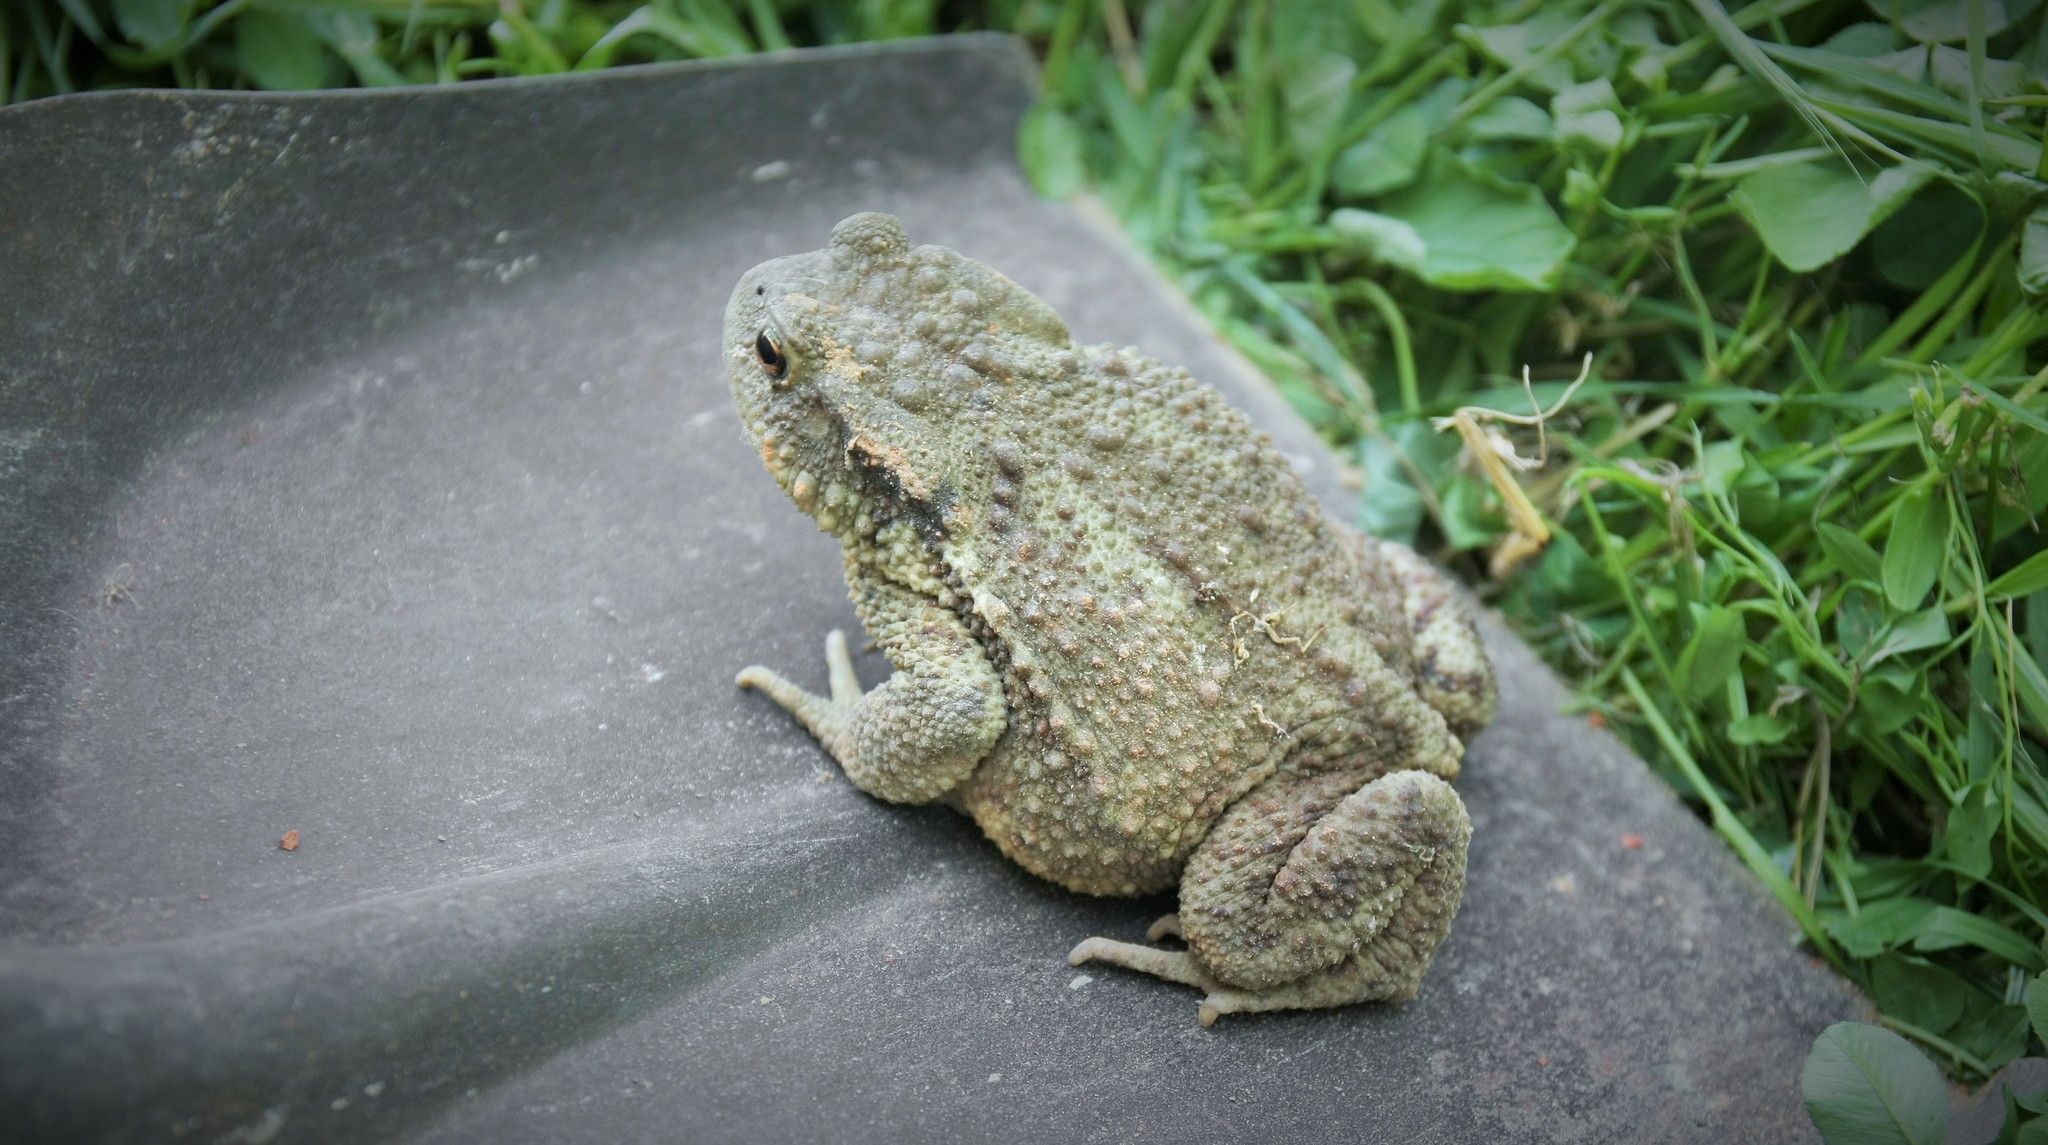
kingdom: Animalia
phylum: Chordata
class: Amphibia
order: Anura
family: Bufonidae
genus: Bufo
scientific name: Bufo bufo
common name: Common toad
